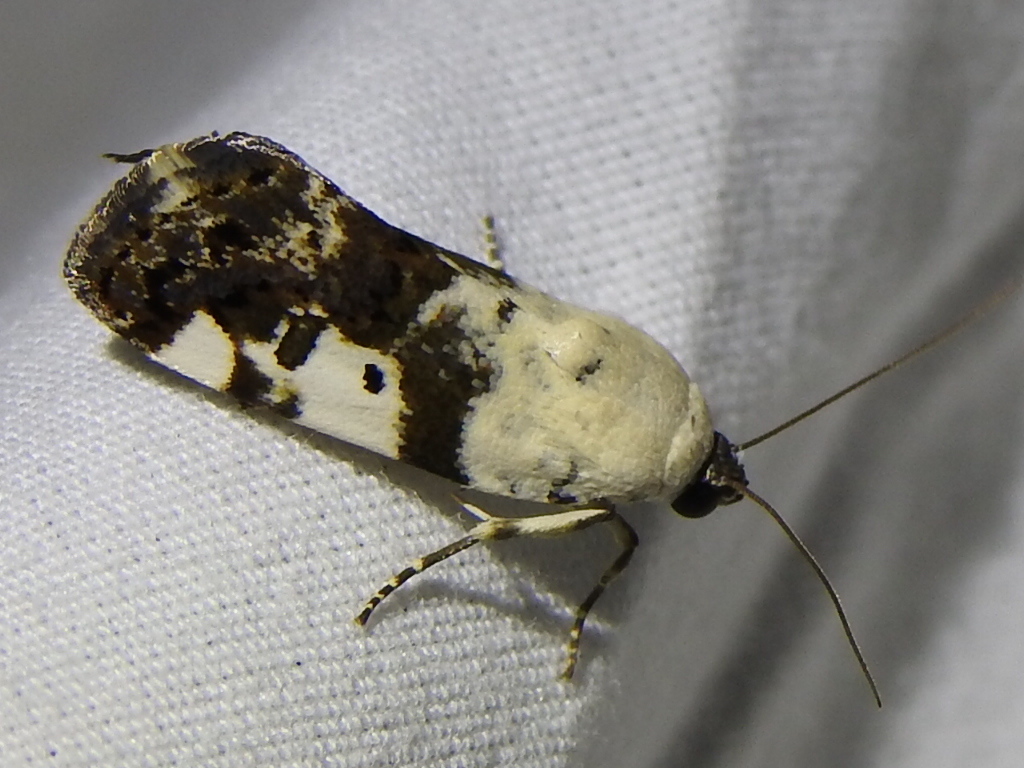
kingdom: Animalia
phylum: Arthropoda
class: Insecta
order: Lepidoptera
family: Noctuidae
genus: Acontia
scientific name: Acontia aprica
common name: Nun
